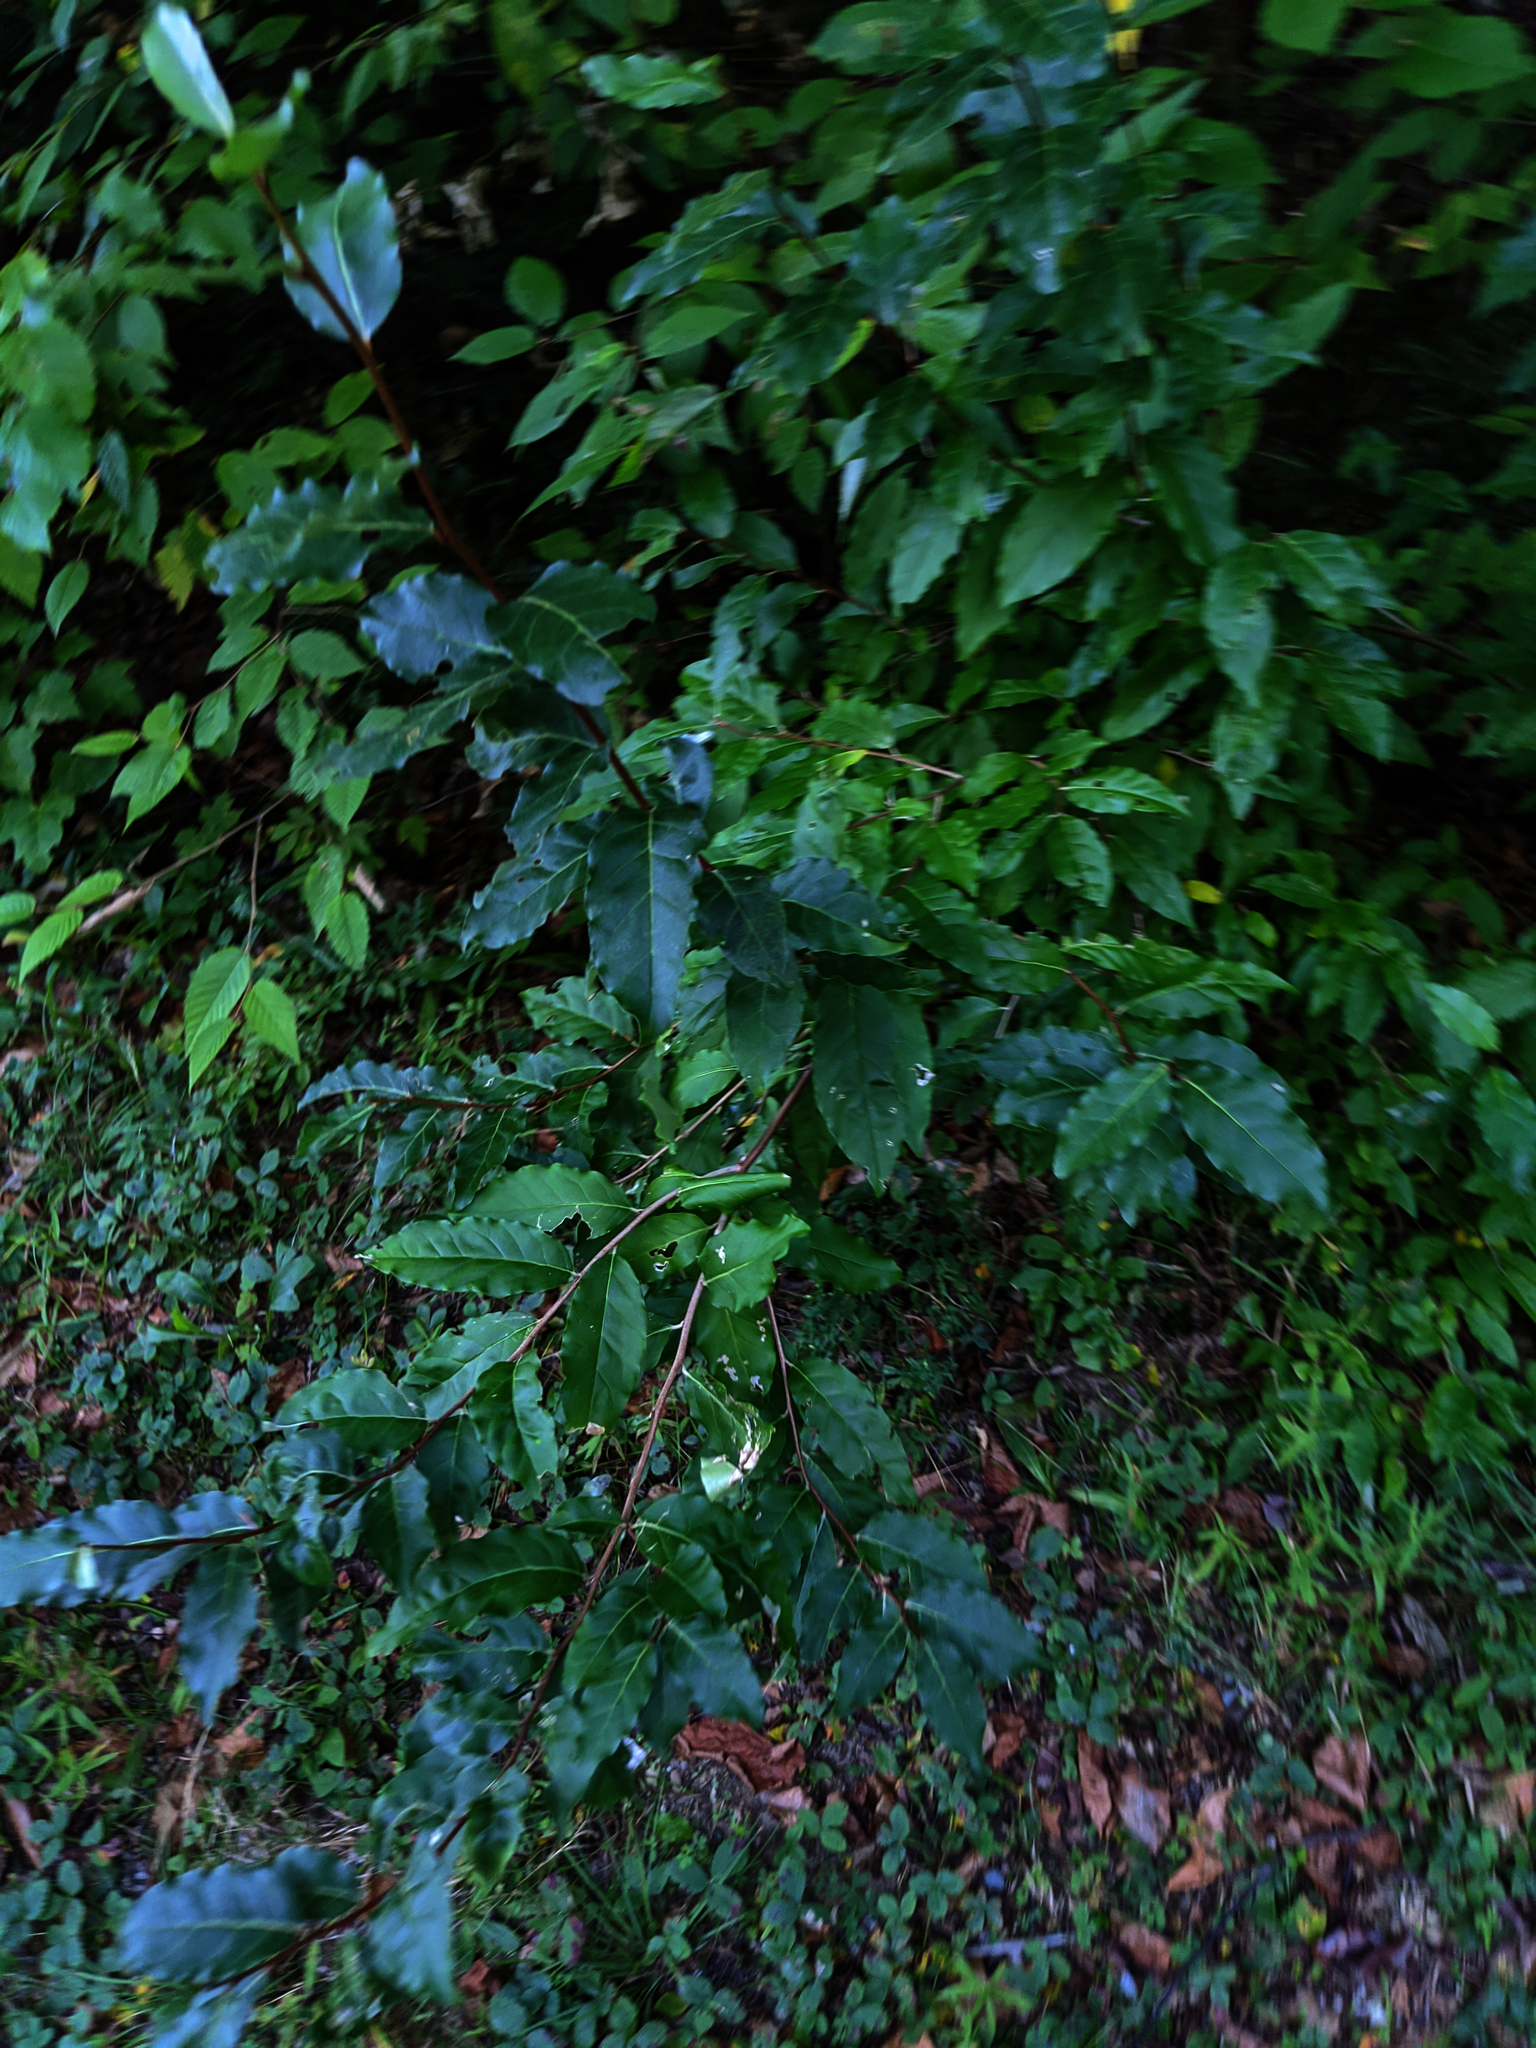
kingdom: Plantae
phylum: Tracheophyta
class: Magnoliopsida
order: Rosales
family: Elaeagnaceae
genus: Elaeagnus
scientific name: Elaeagnus umbellata
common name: Autumn olive
